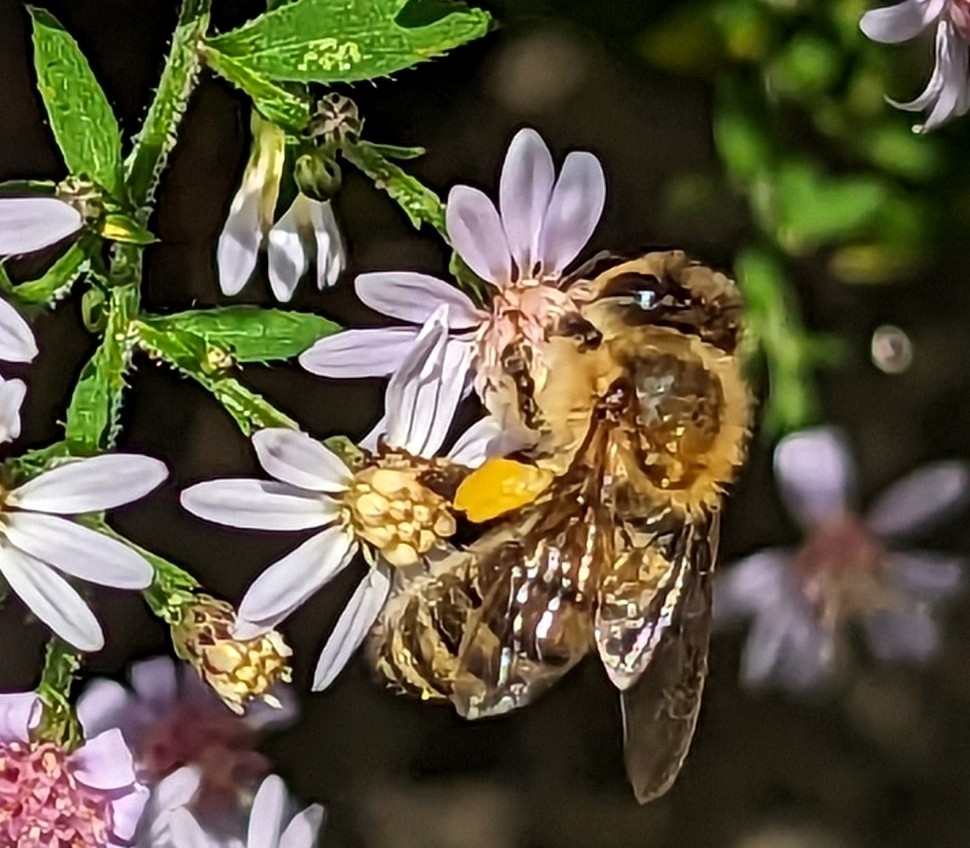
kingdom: Animalia
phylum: Arthropoda
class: Insecta
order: Hymenoptera
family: Apidae
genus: Apis
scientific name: Apis mellifera
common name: Honey bee
